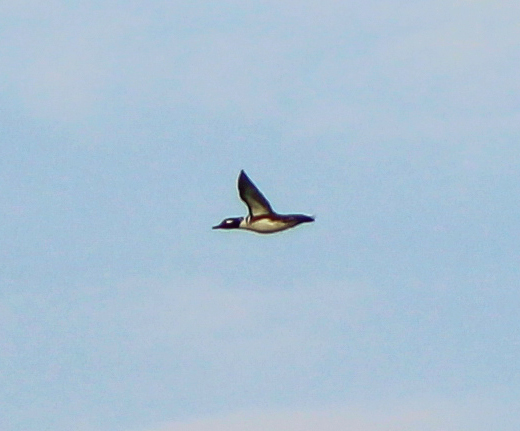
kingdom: Animalia
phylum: Chordata
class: Aves
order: Anseriformes
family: Anatidae
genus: Lophodytes
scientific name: Lophodytes cucullatus
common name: Hooded merganser
